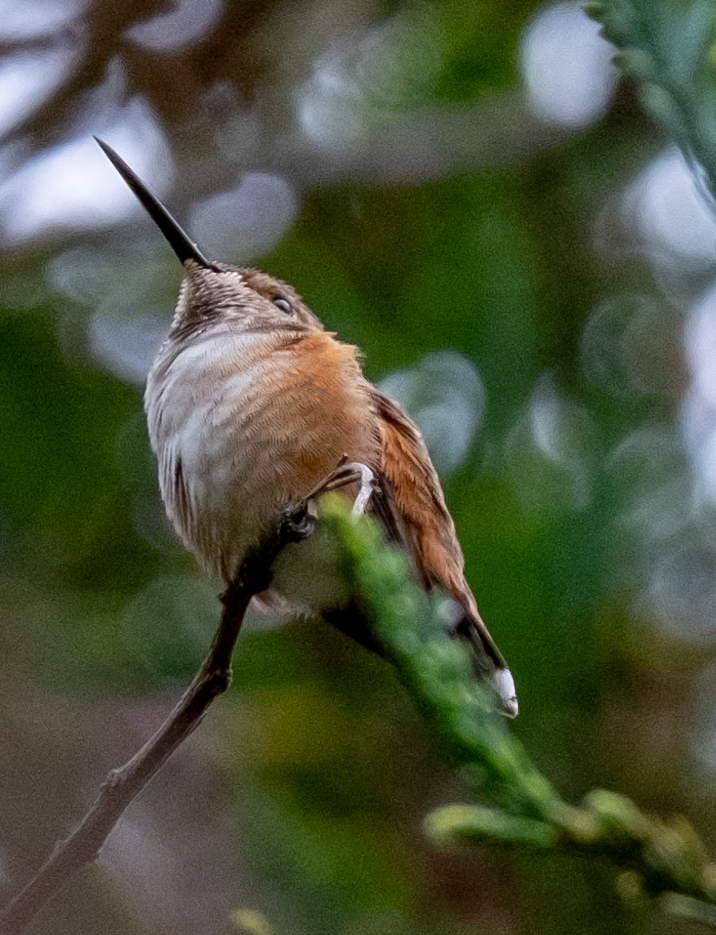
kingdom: Animalia
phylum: Chordata
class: Aves
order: Apodiformes
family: Trochilidae
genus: Selasphorus
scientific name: Selasphorus sasin
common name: Allen's hummingbird
